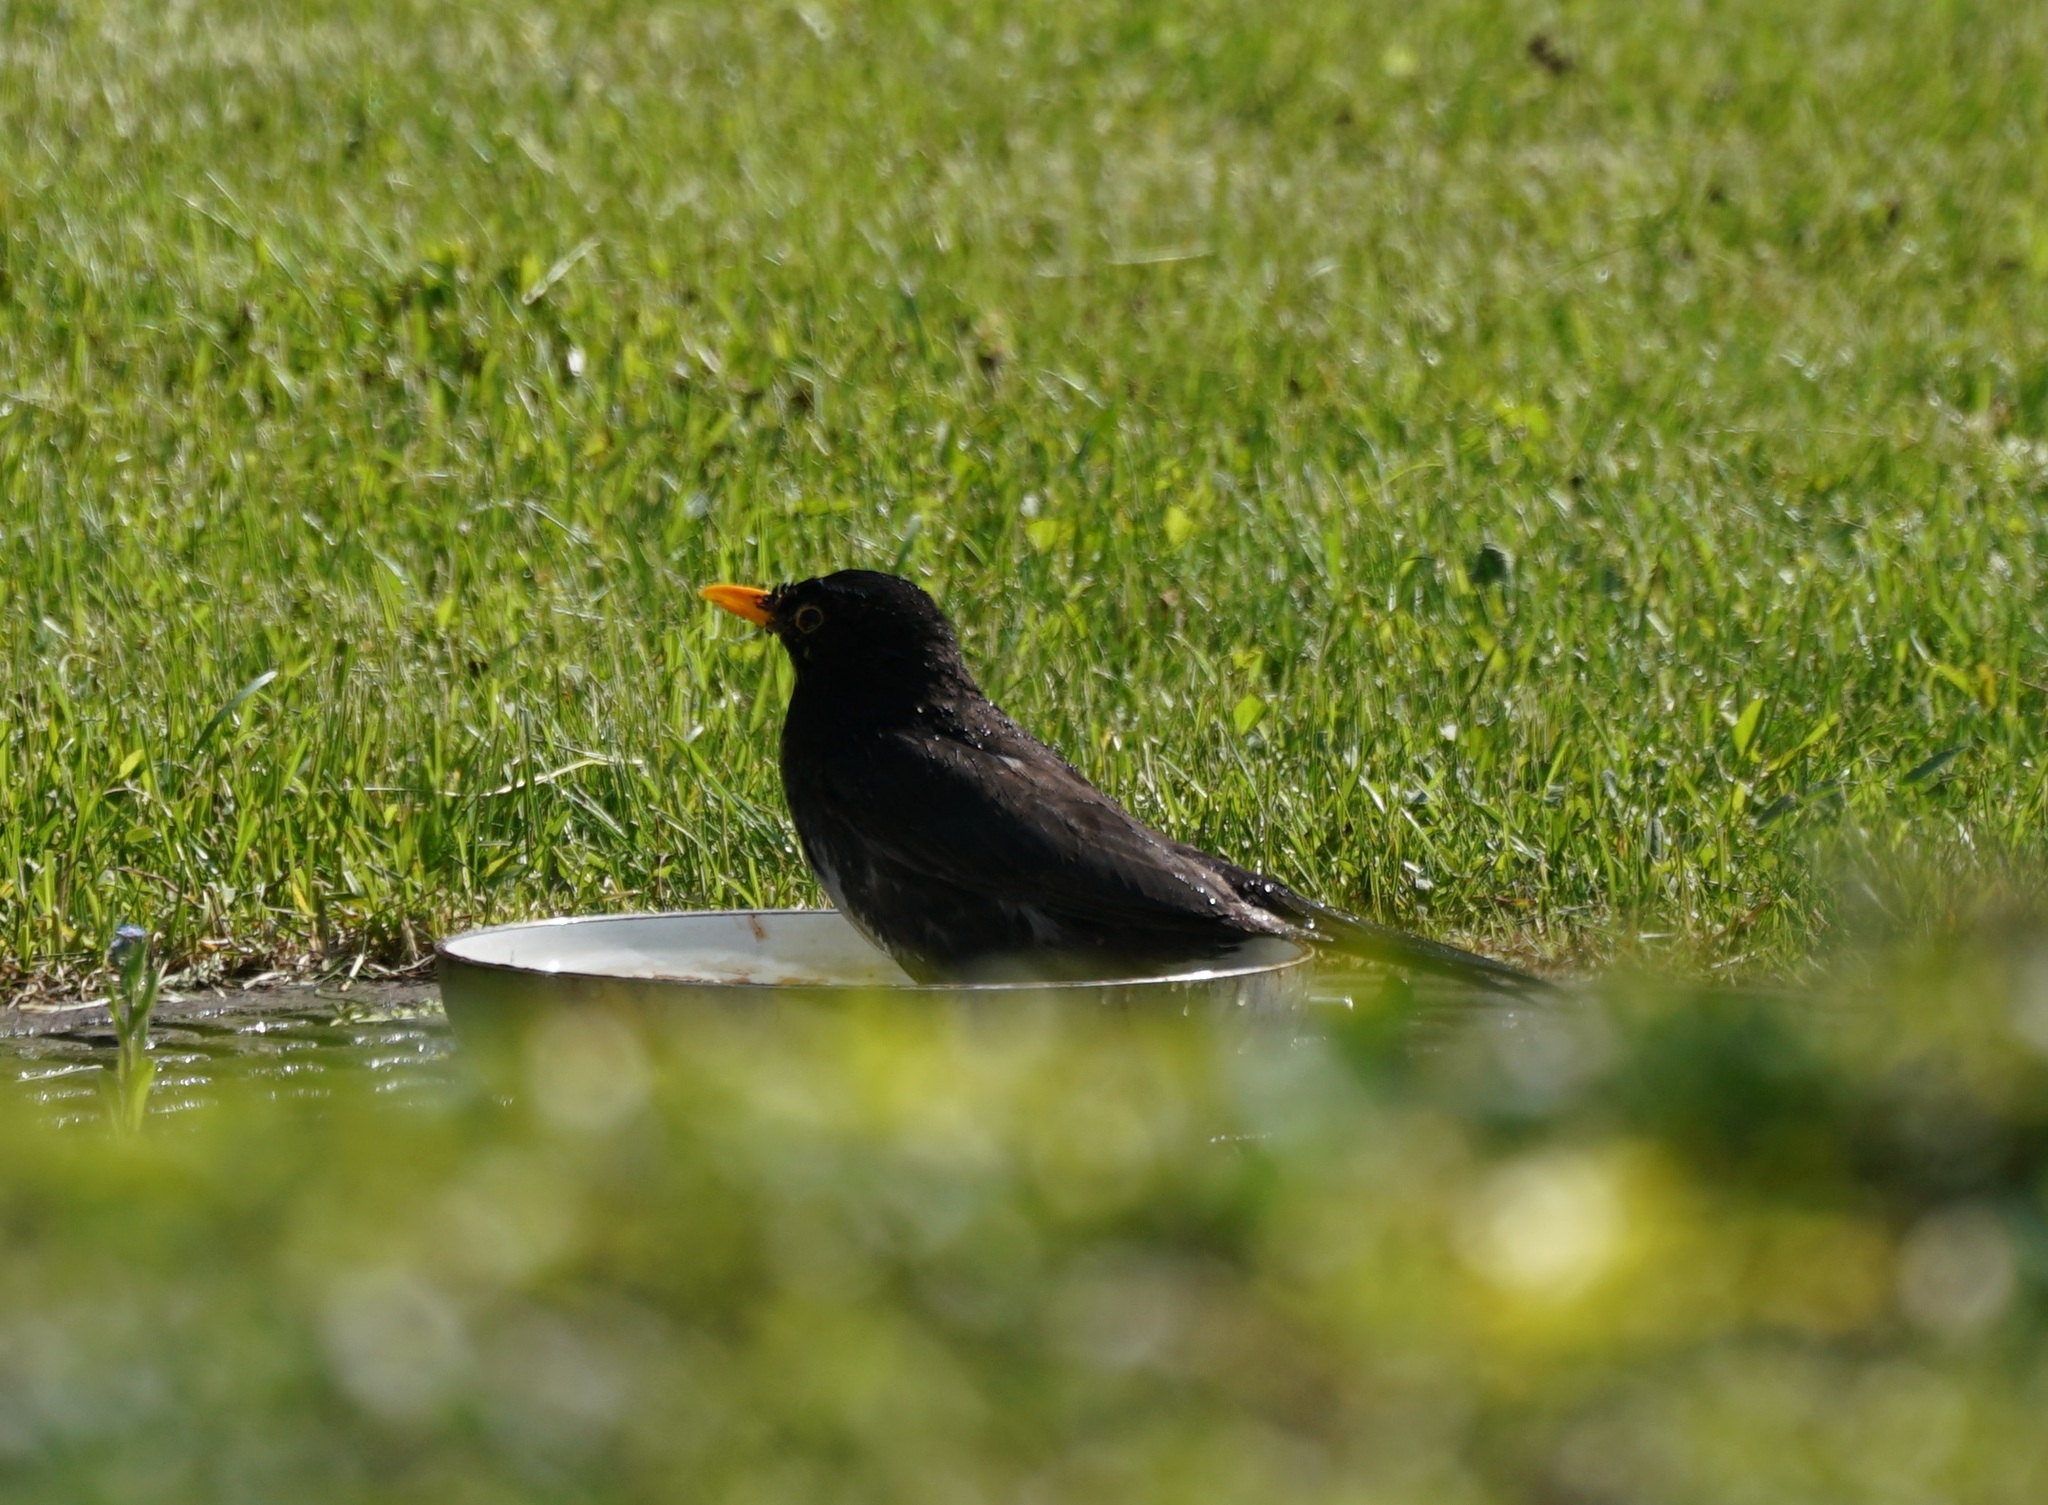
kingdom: Animalia
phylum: Chordata
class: Aves
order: Passeriformes
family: Turdidae
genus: Turdus
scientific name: Turdus merula
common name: Common blackbird
